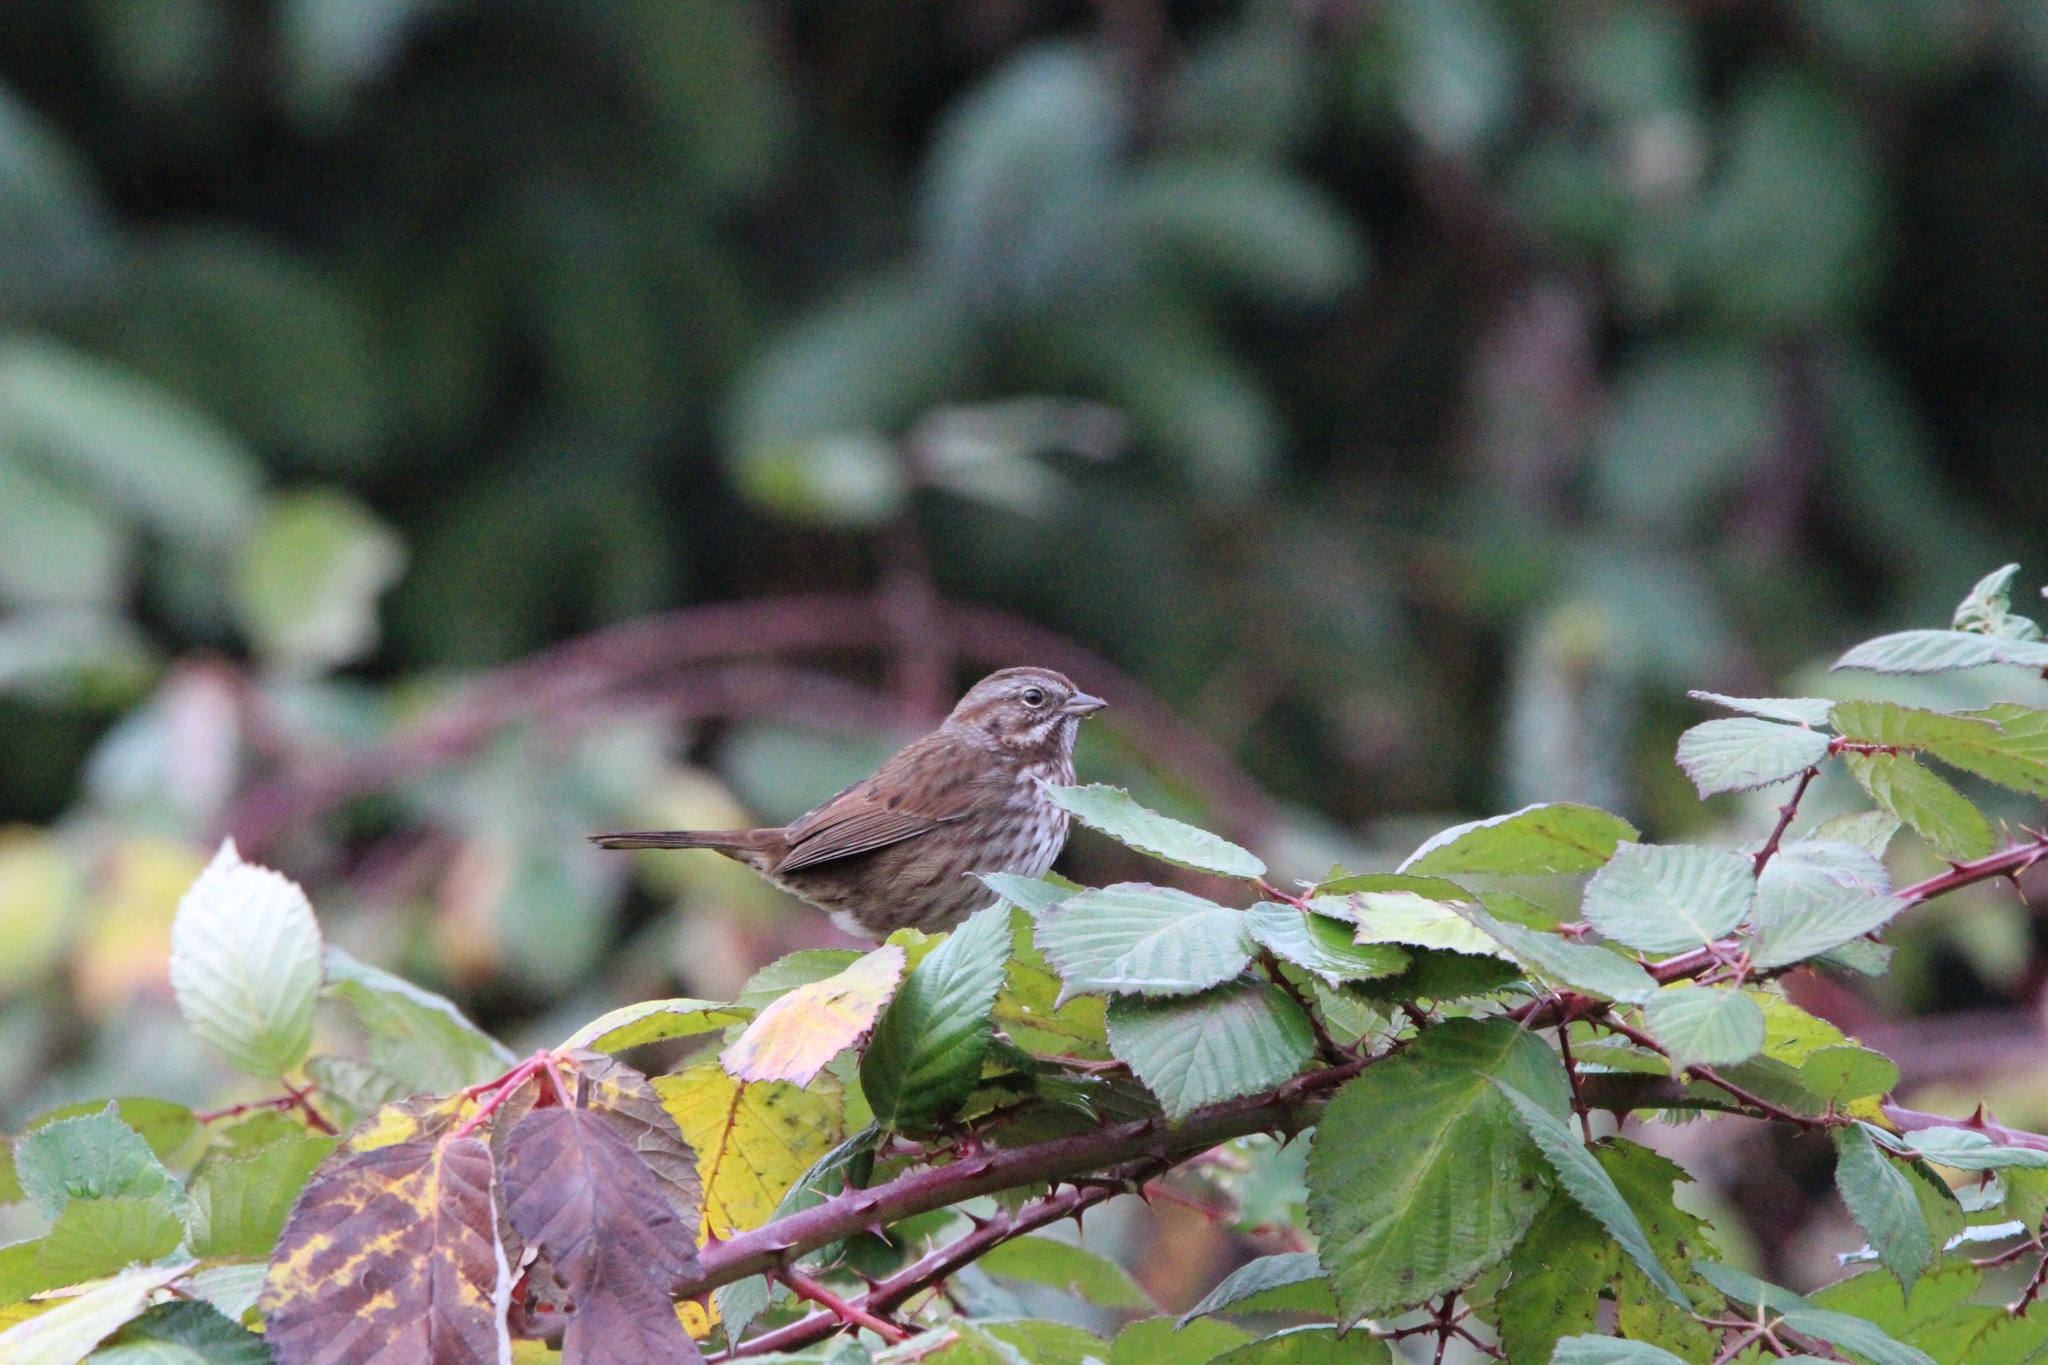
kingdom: Animalia
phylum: Chordata
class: Aves
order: Passeriformes
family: Passerellidae
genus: Melospiza
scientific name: Melospiza melodia
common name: Song sparrow
